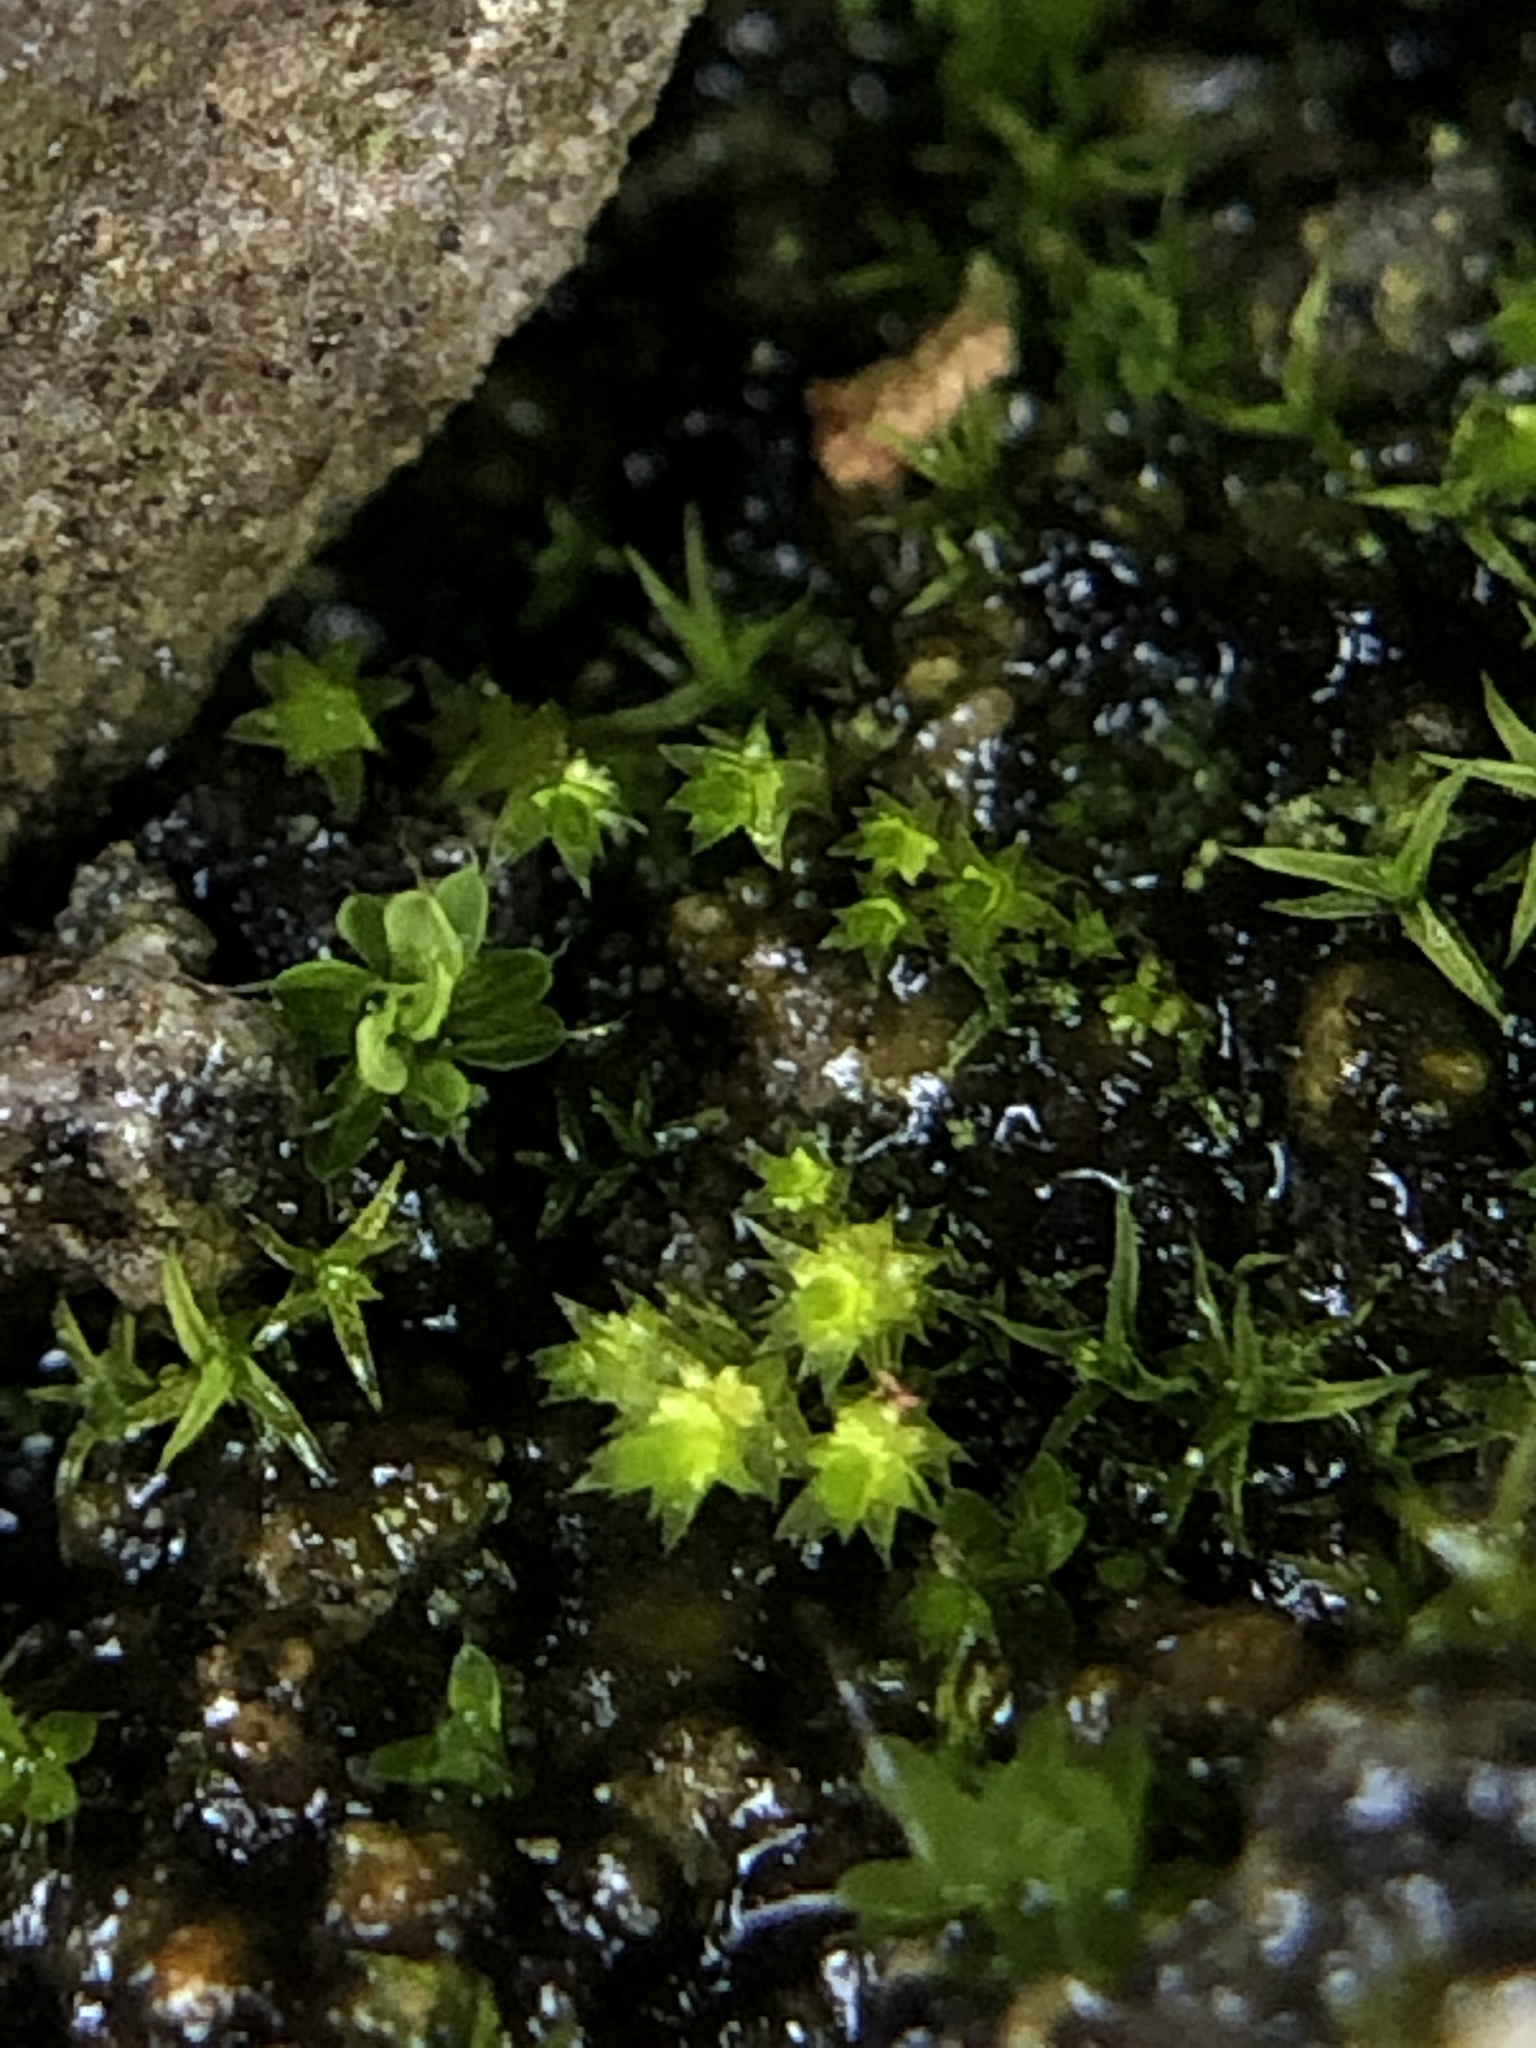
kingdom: Plantae
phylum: Bryophyta
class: Bryopsida
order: Bryales
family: Bryaceae
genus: Gemmabryum
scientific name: Gemmabryum dichotomum
